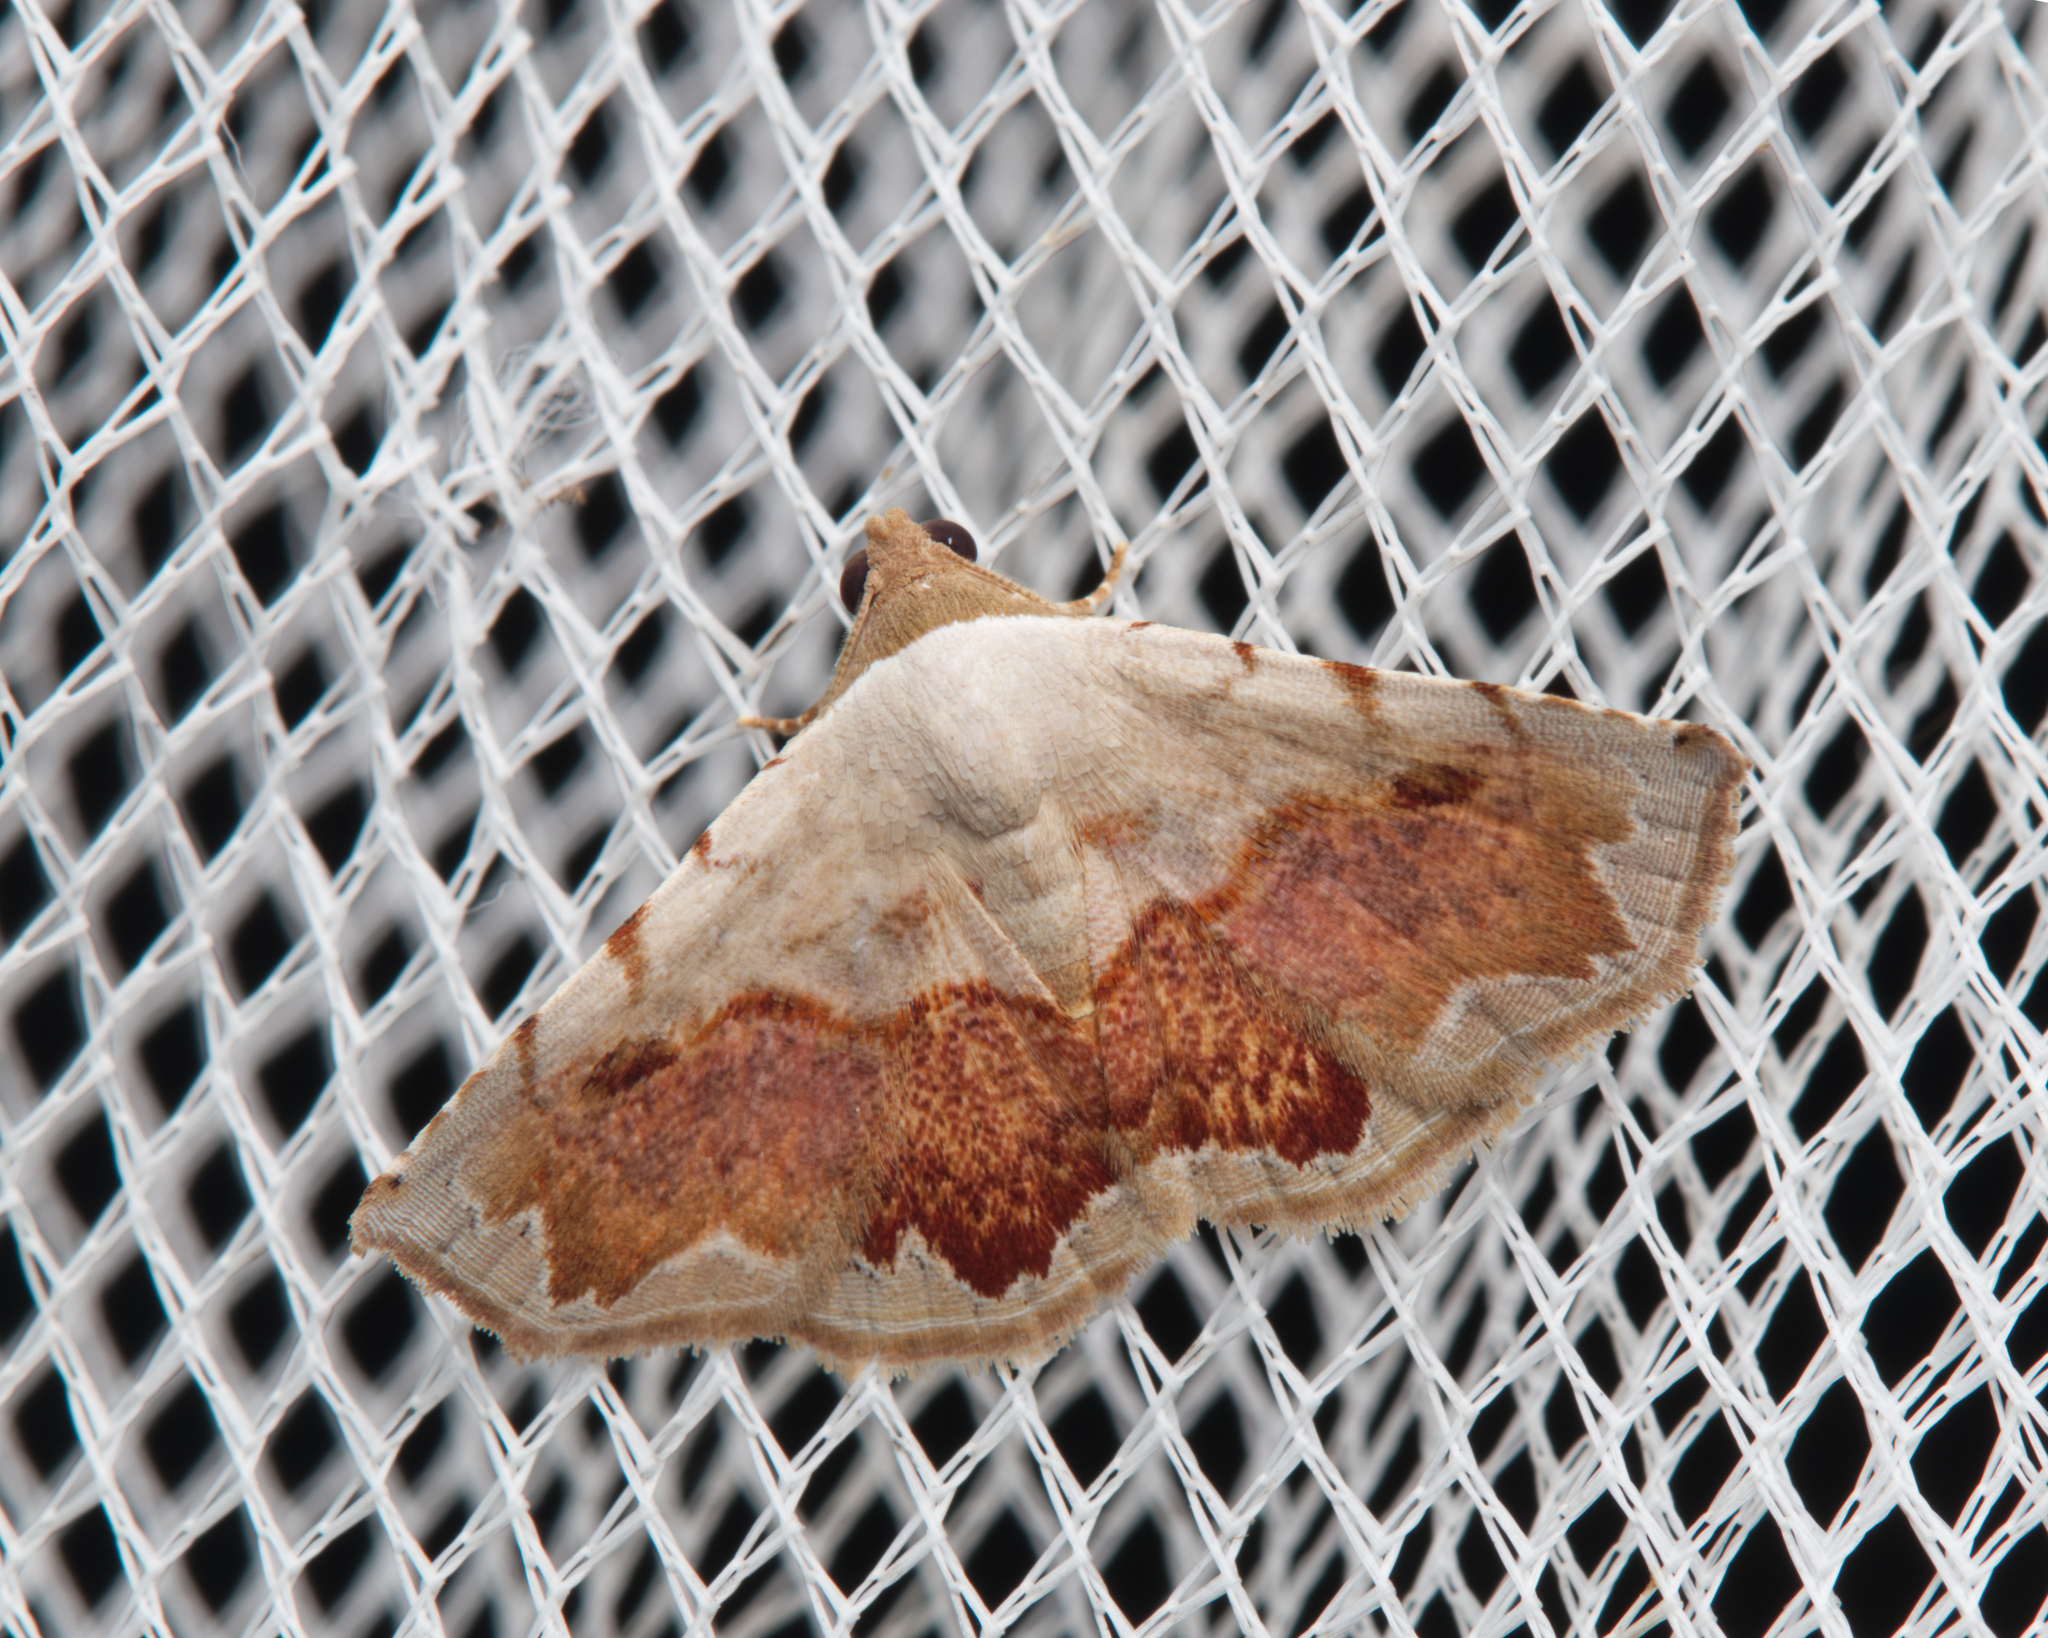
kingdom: Animalia
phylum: Arthropoda
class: Insecta
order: Lepidoptera
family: Noctuidae
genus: Eublemma
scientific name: Eublemma
